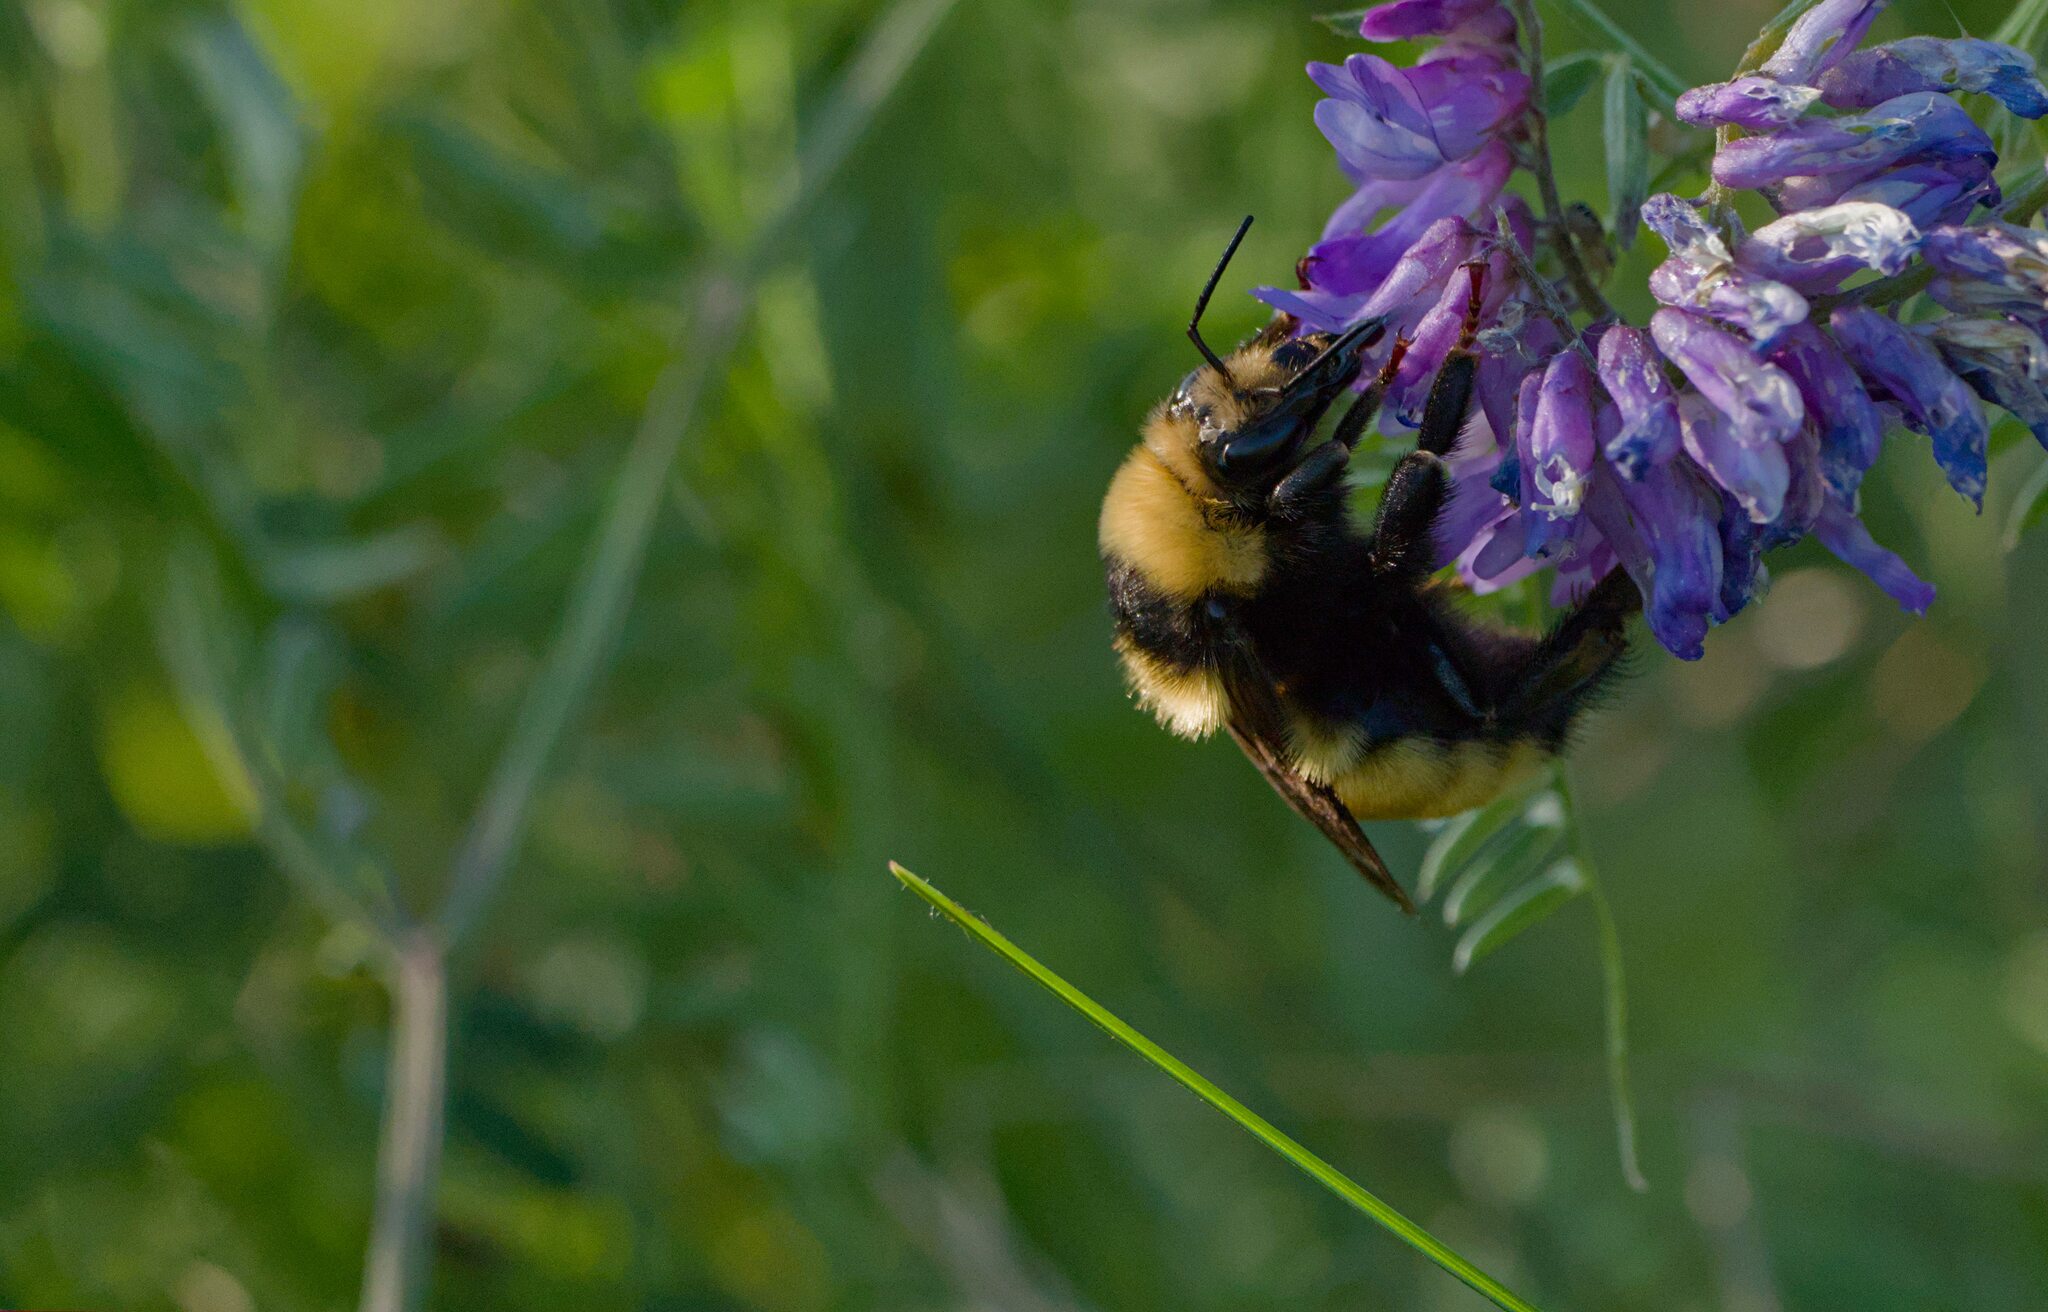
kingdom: Animalia
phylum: Arthropoda
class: Insecta
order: Hymenoptera
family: Apidae
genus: Bombus
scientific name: Bombus borealis
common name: Northern amber bumble bee
